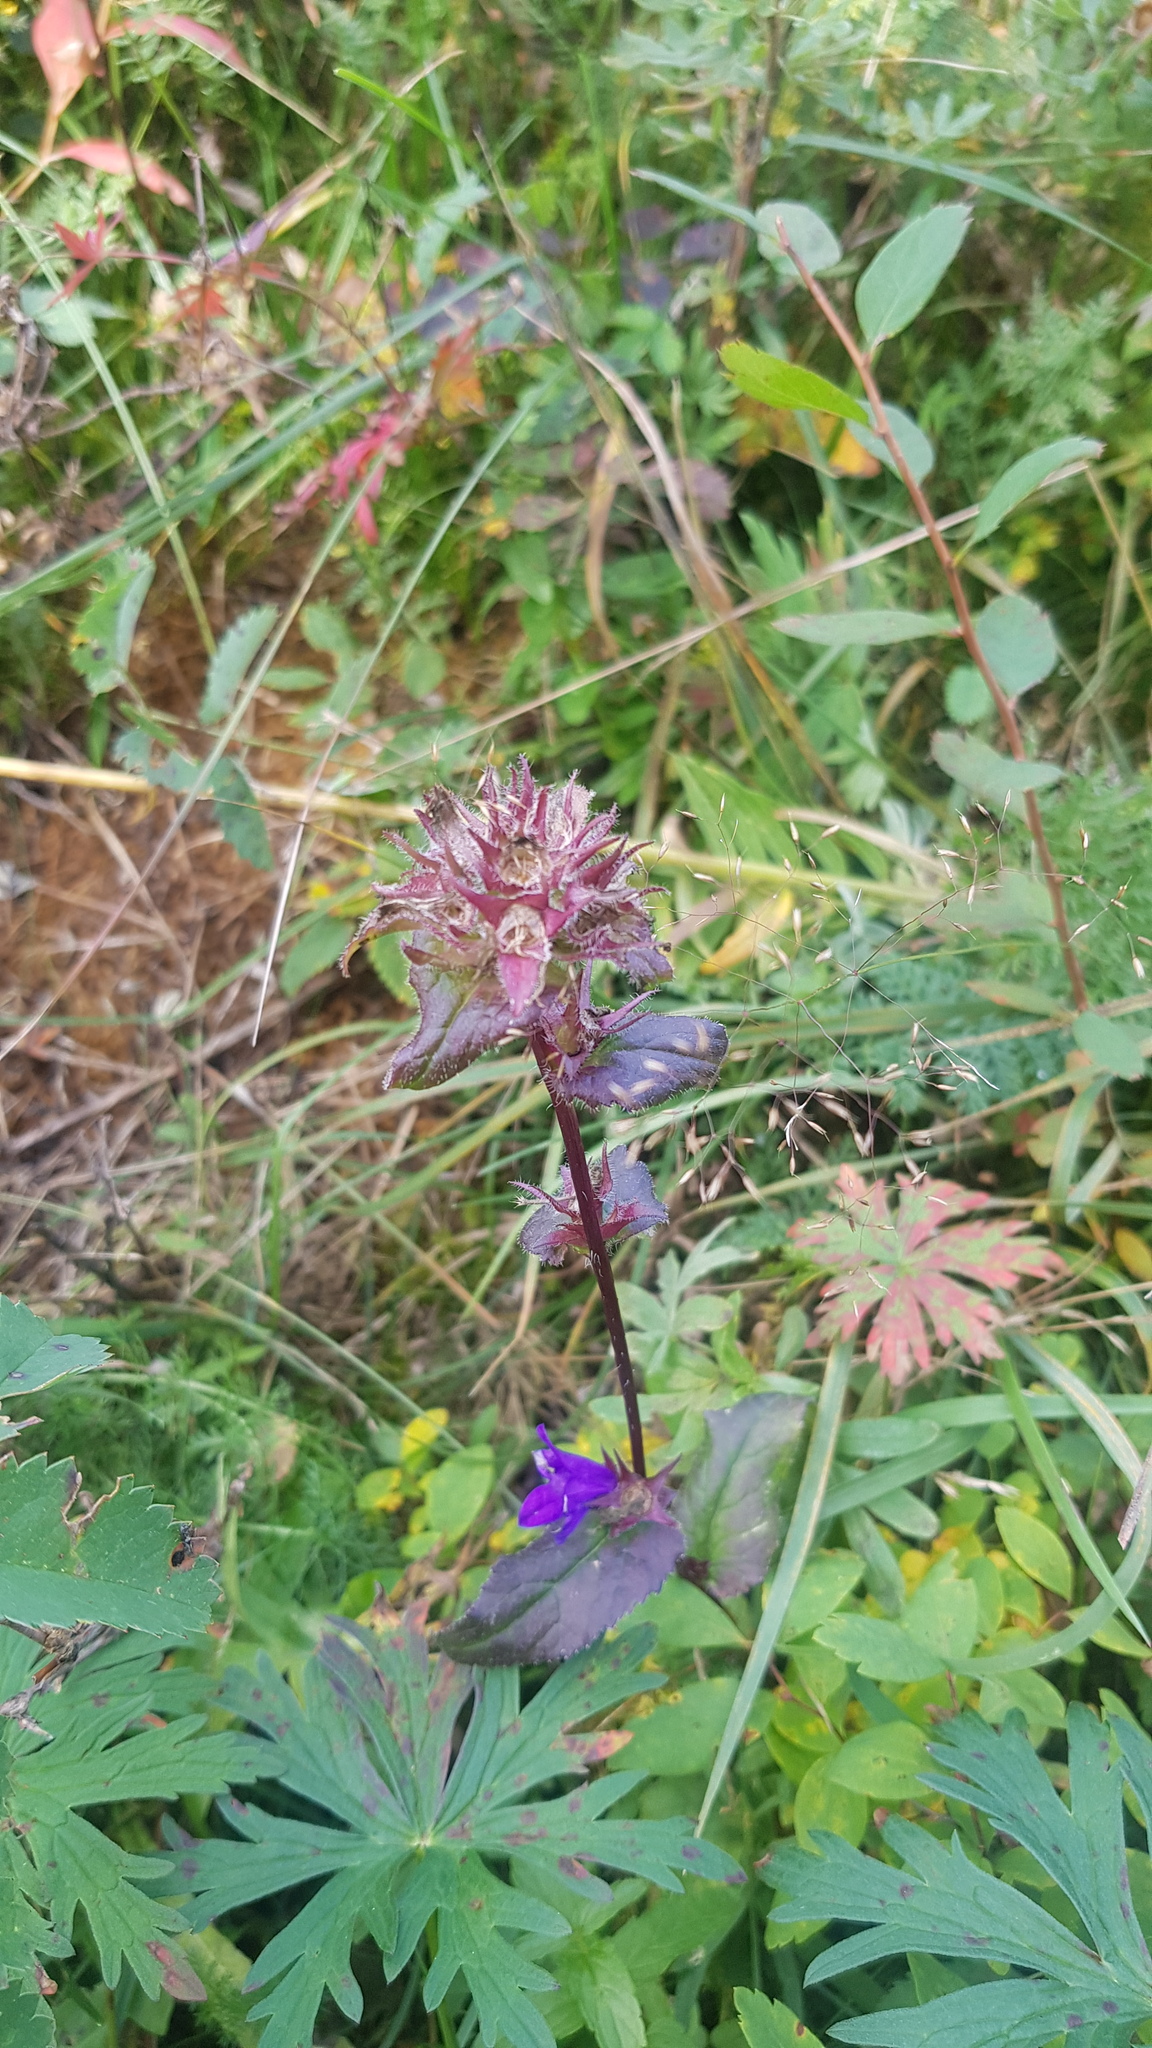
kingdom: Plantae
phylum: Tracheophyta
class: Magnoliopsida
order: Asterales
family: Campanulaceae
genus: Campanula
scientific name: Campanula glomerata
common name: Clustered bellflower
